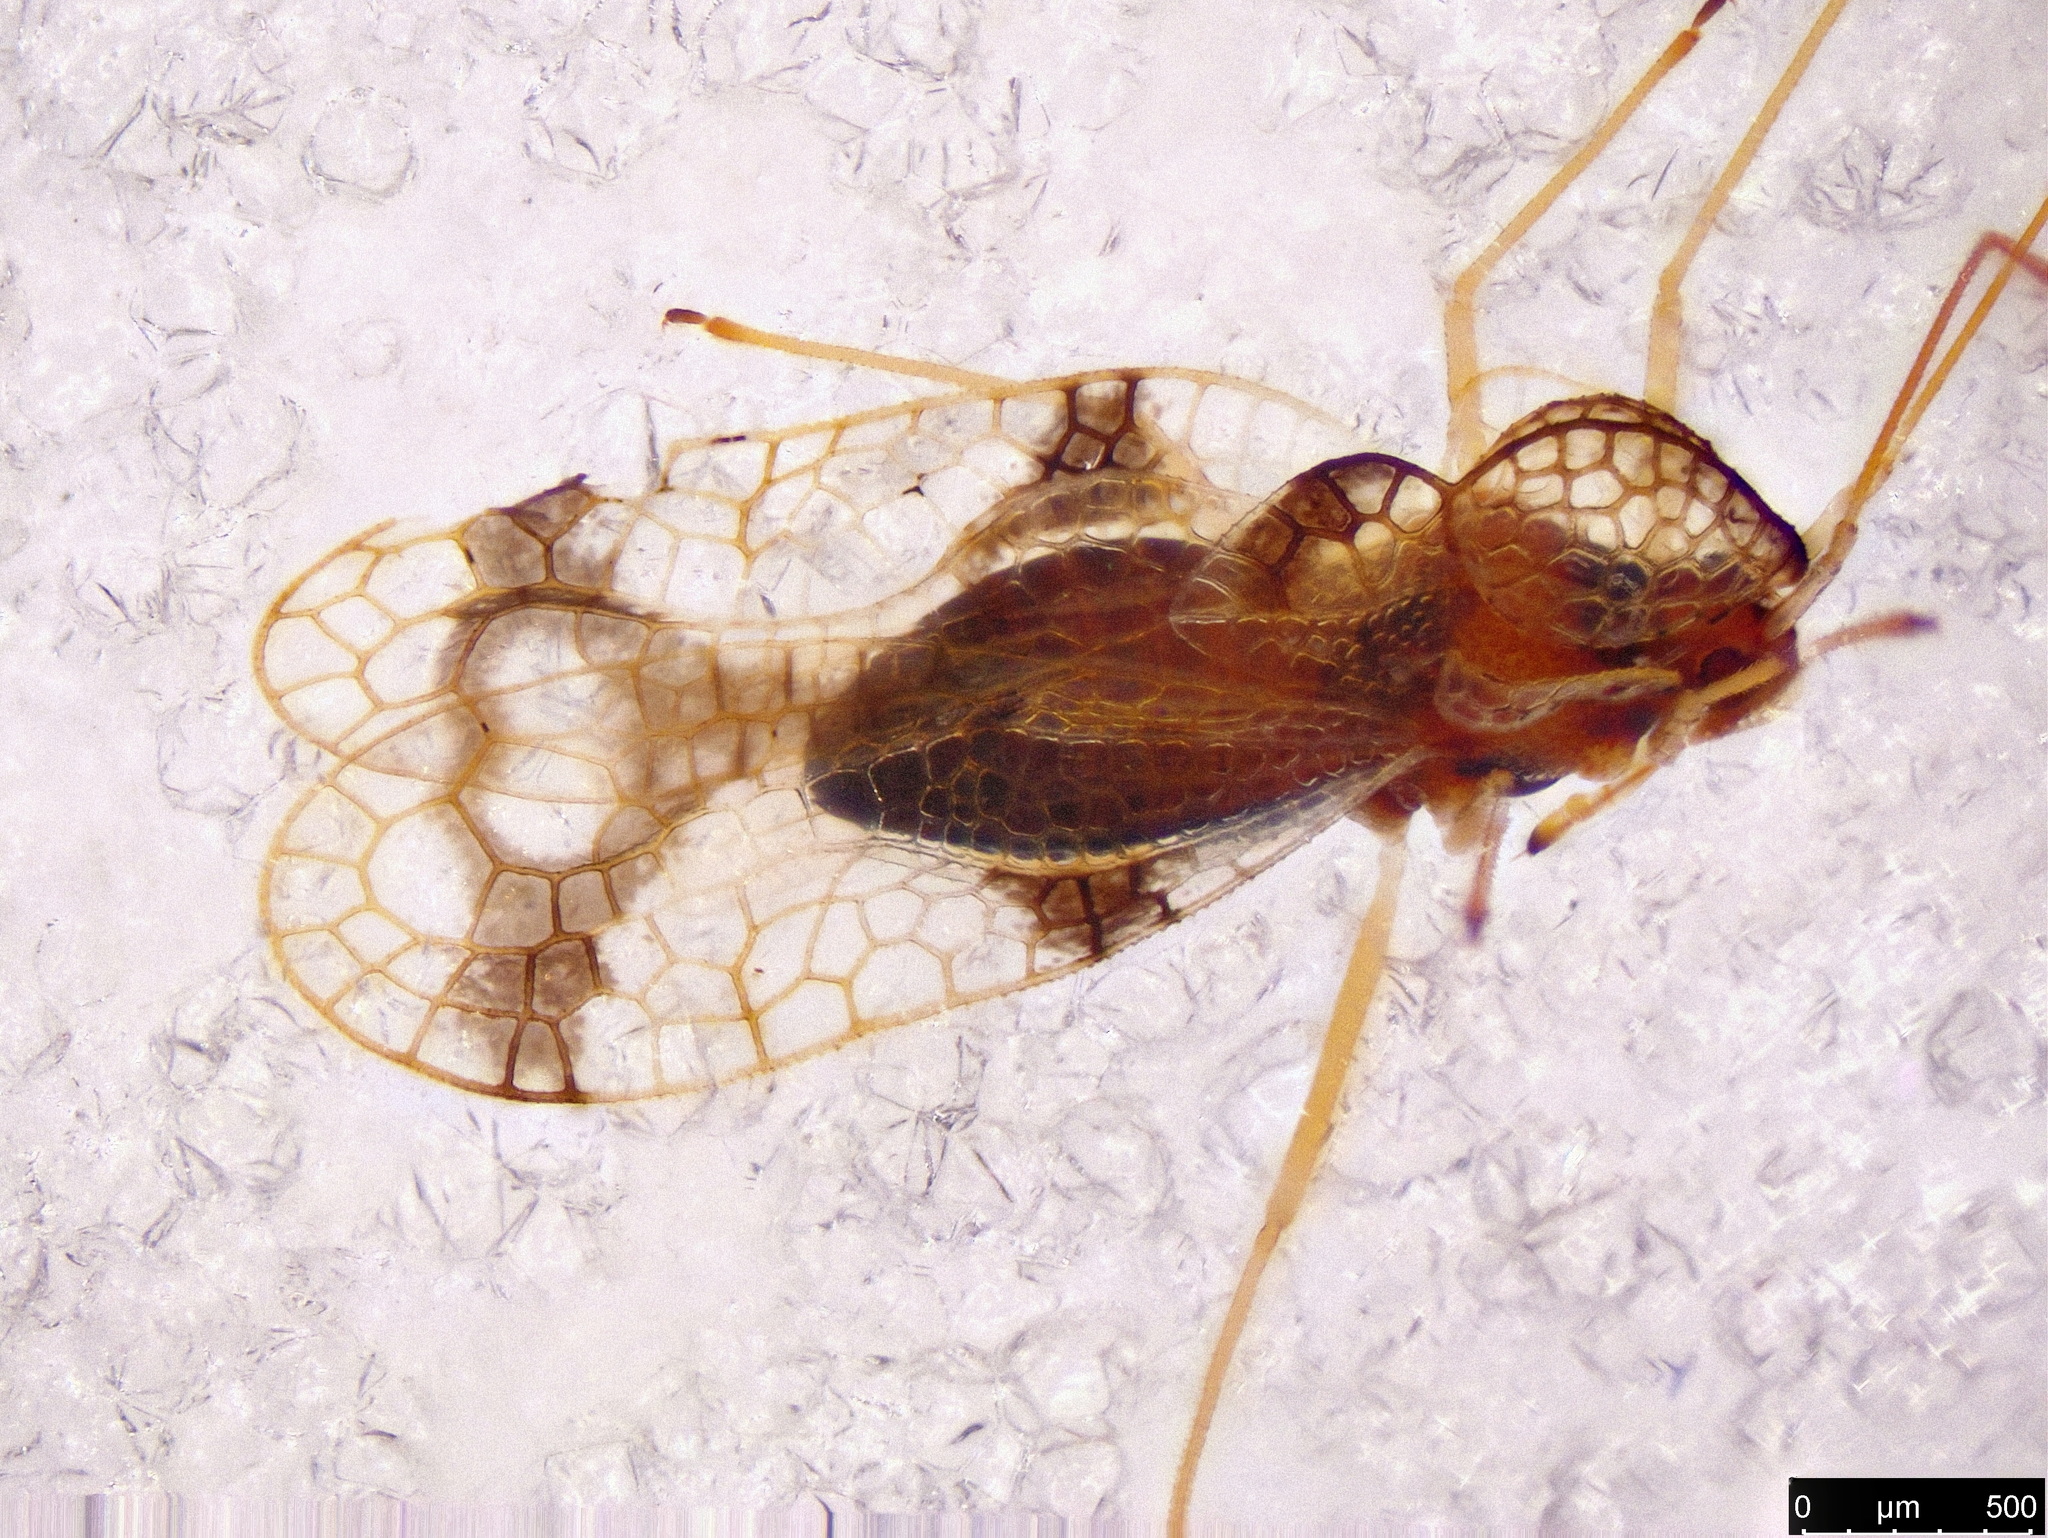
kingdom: Animalia
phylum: Arthropoda
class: Insecta
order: Hemiptera
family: Tingidae
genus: Stephanitis
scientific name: Stephanitis pyrioides
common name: Azalea lace bug
